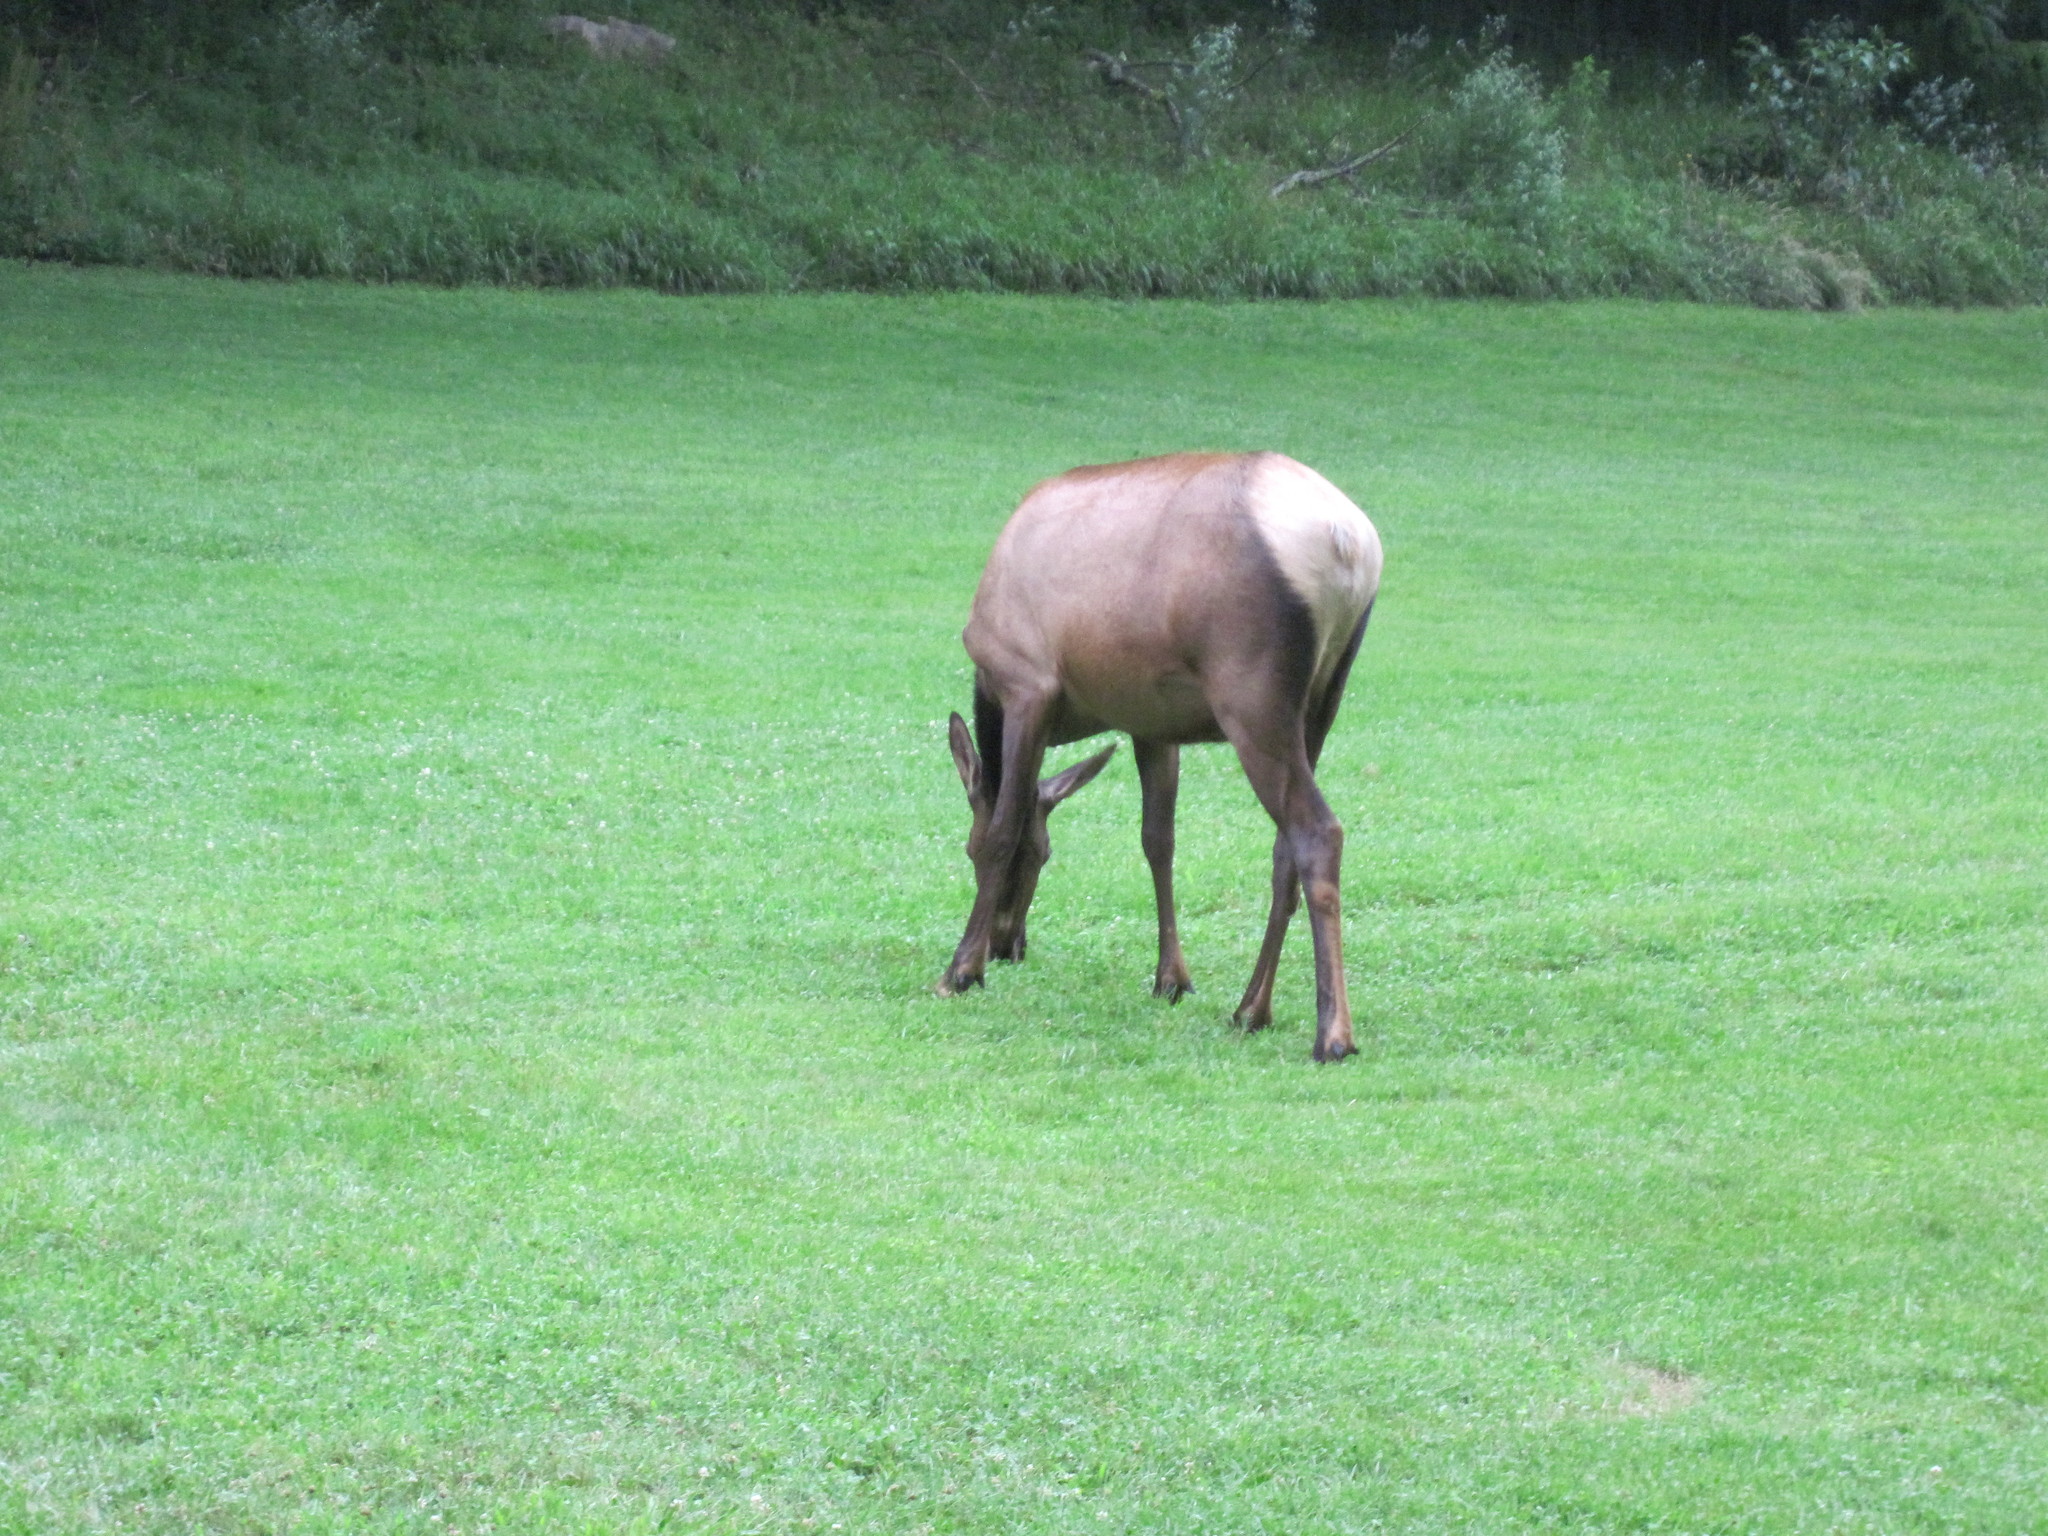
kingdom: Animalia
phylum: Chordata
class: Mammalia
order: Artiodactyla
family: Cervidae
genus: Cervus
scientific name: Cervus elaphus
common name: Red deer
